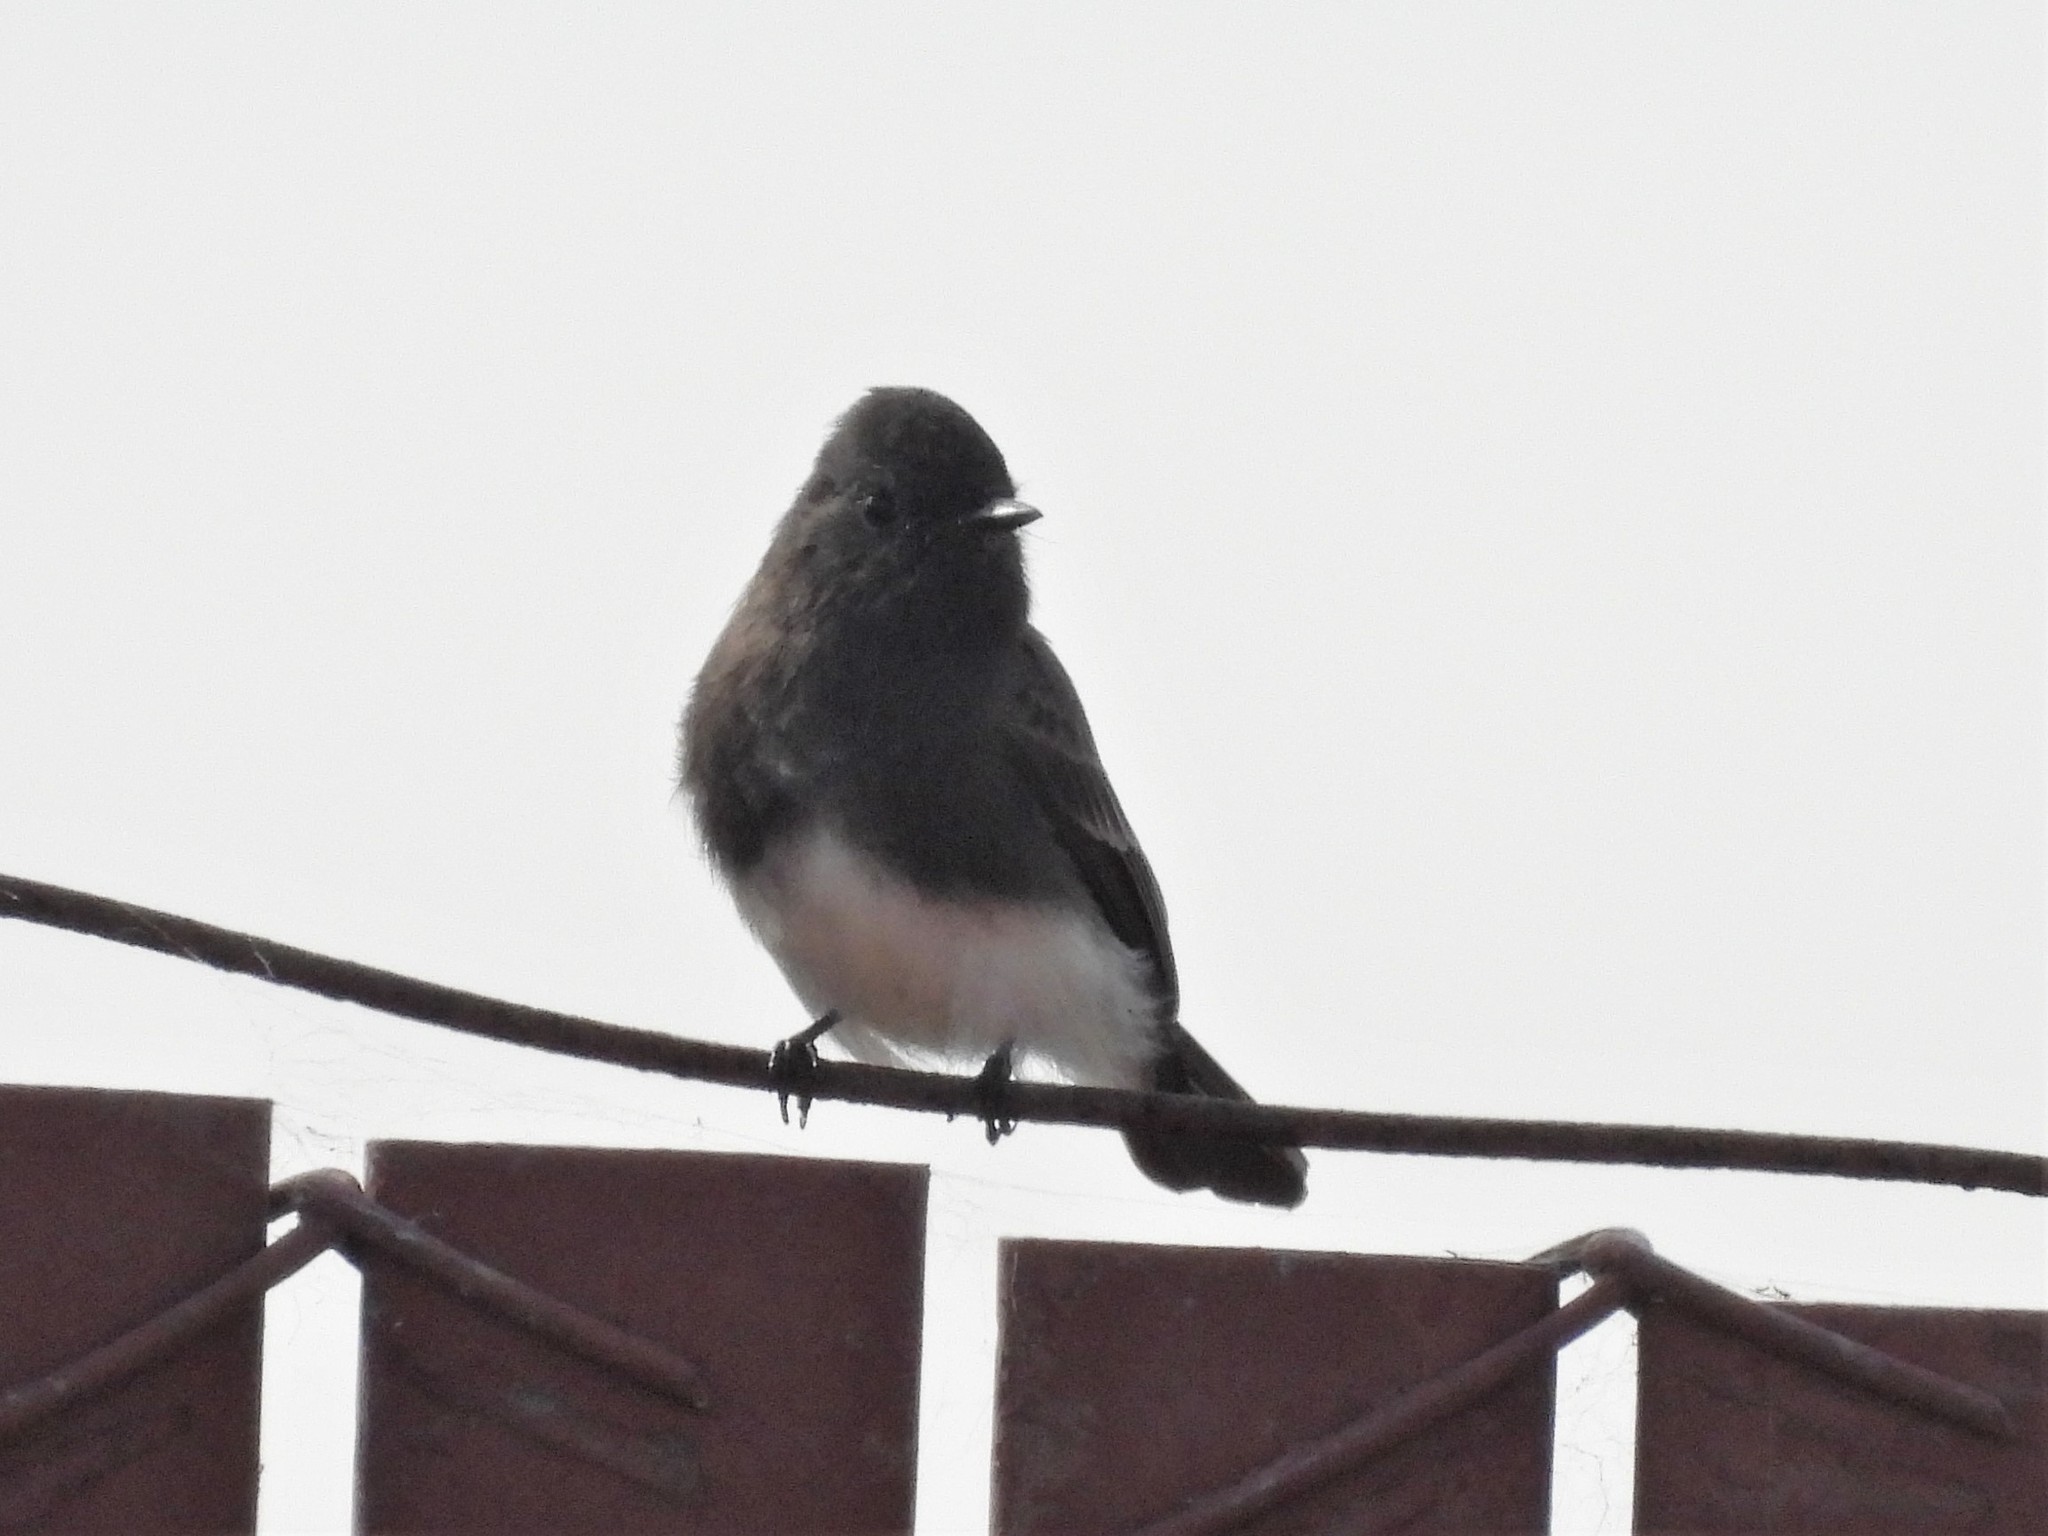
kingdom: Animalia
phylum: Chordata
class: Aves
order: Passeriformes
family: Tyrannidae
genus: Sayornis
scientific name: Sayornis nigricans
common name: Black phoebe
